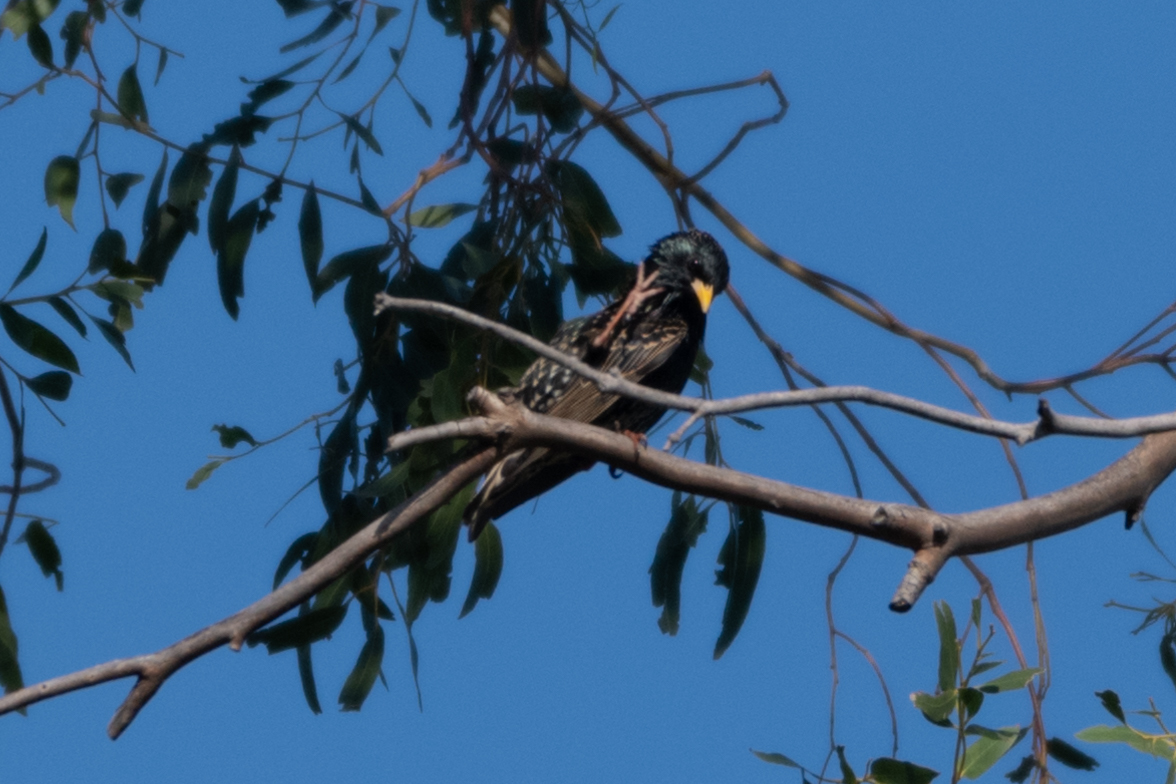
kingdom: Animalia
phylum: Chordata
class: Aves
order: Passeriformes
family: Sturnidae
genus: Sturnus
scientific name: Sturnus vulgaris
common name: Common starling
